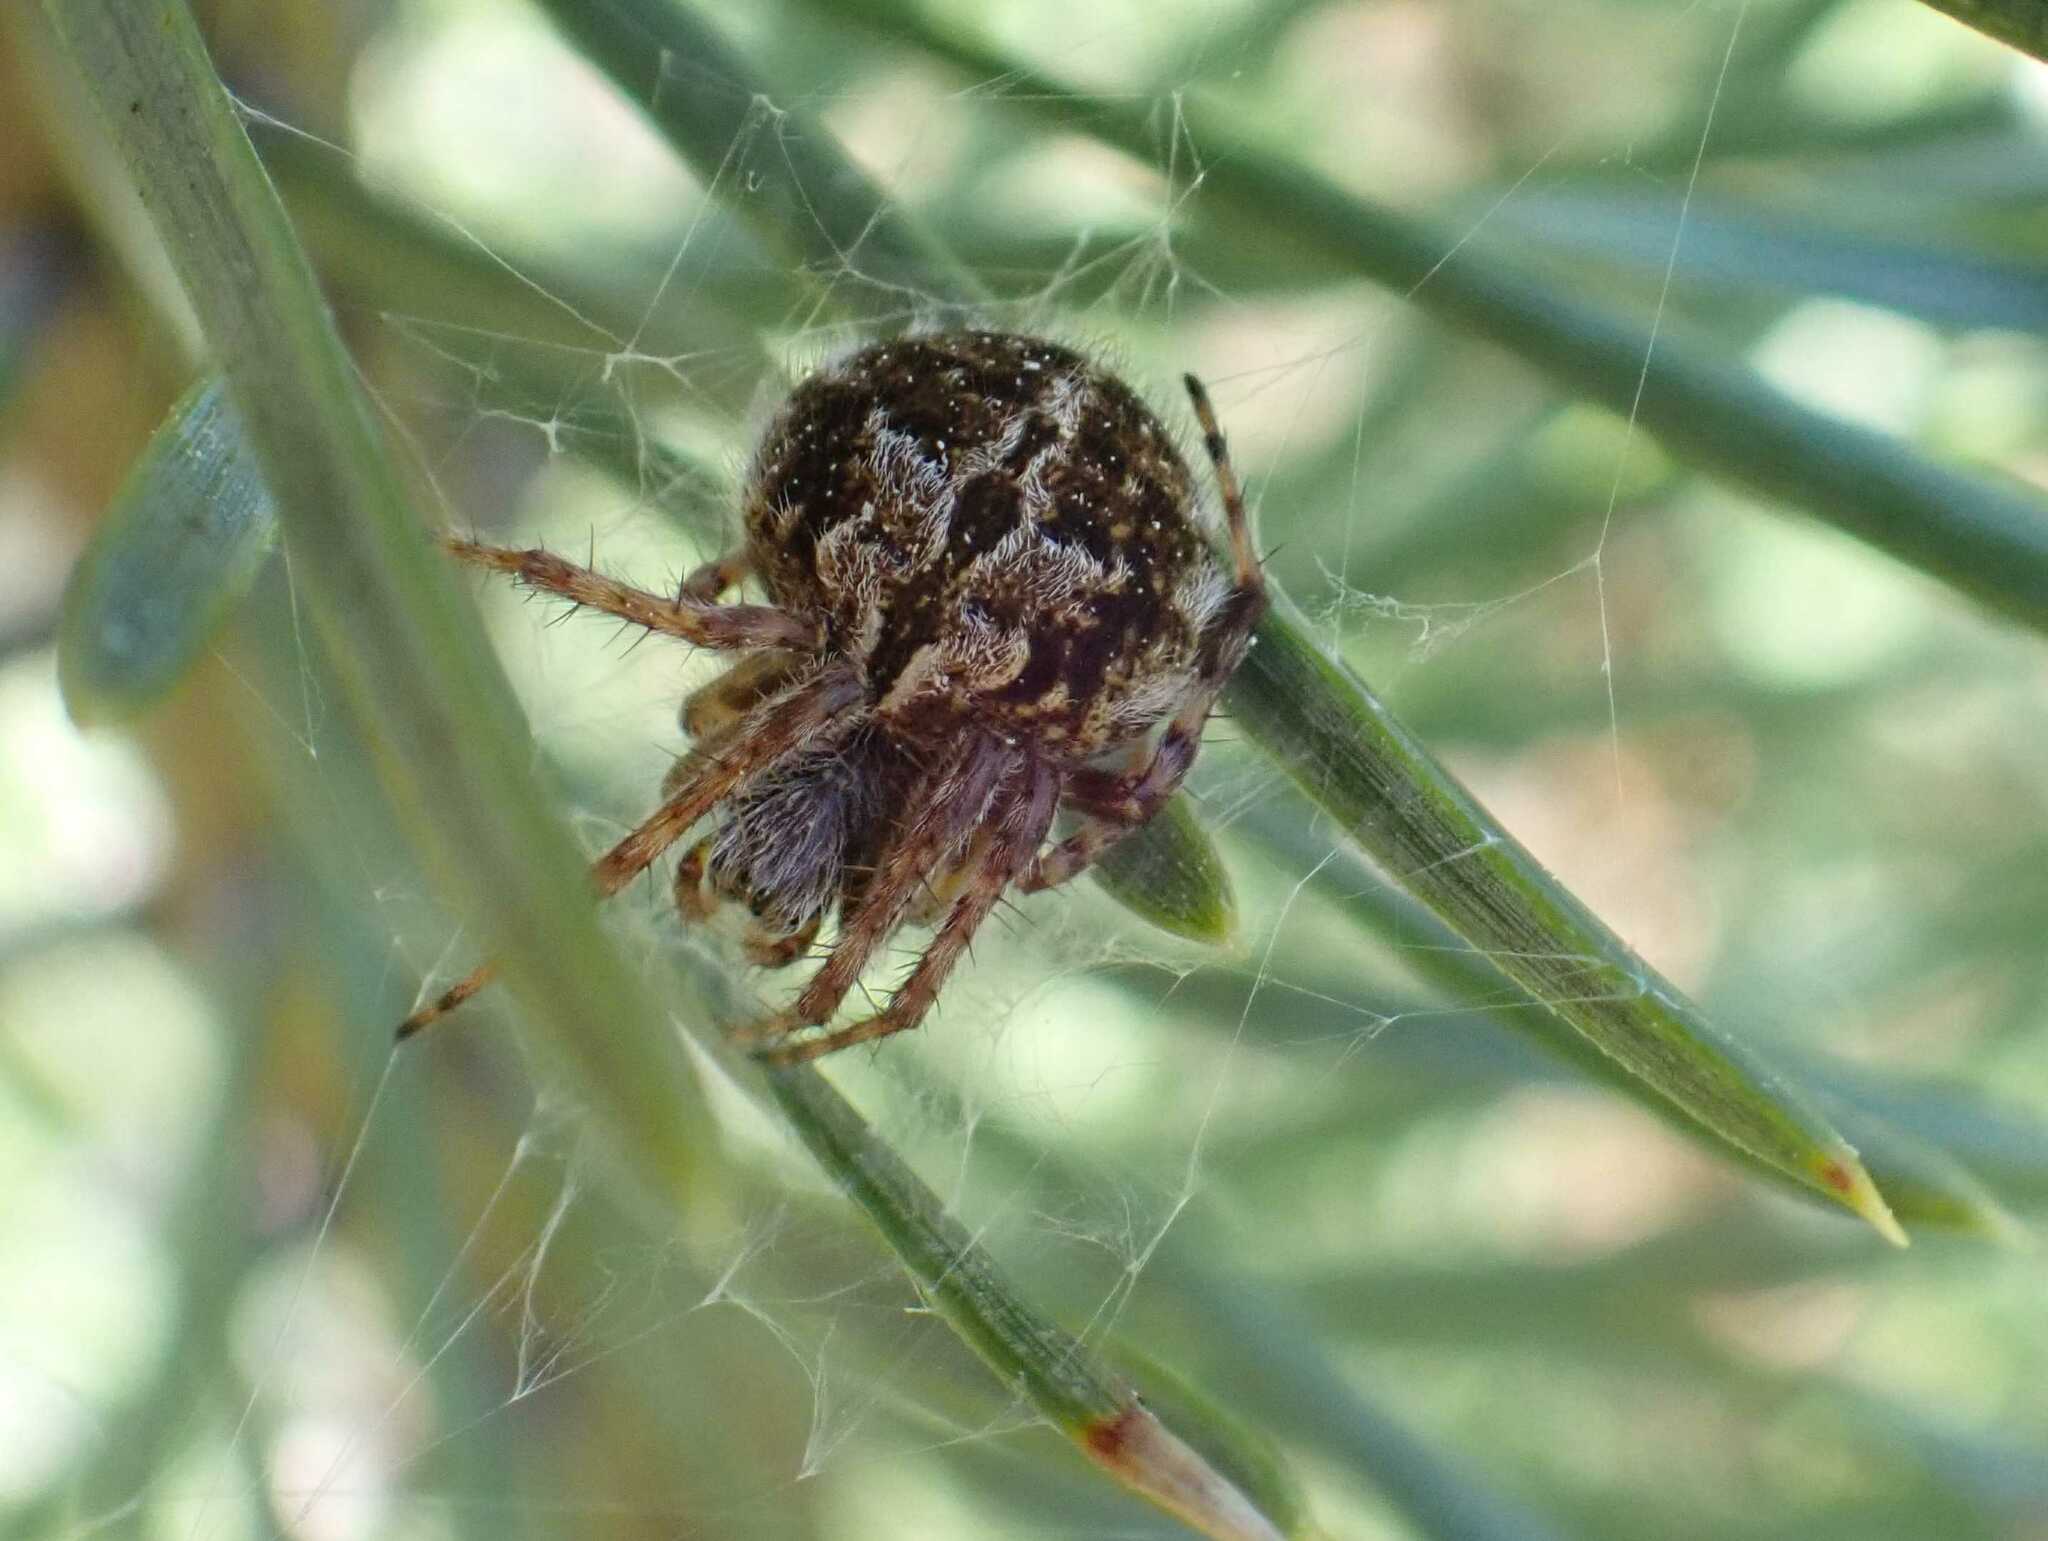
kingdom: Animalia
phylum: Arthropoda
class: Arachnida
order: Araneae
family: Araneidae
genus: Agalenatea
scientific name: Agalenatea redii
